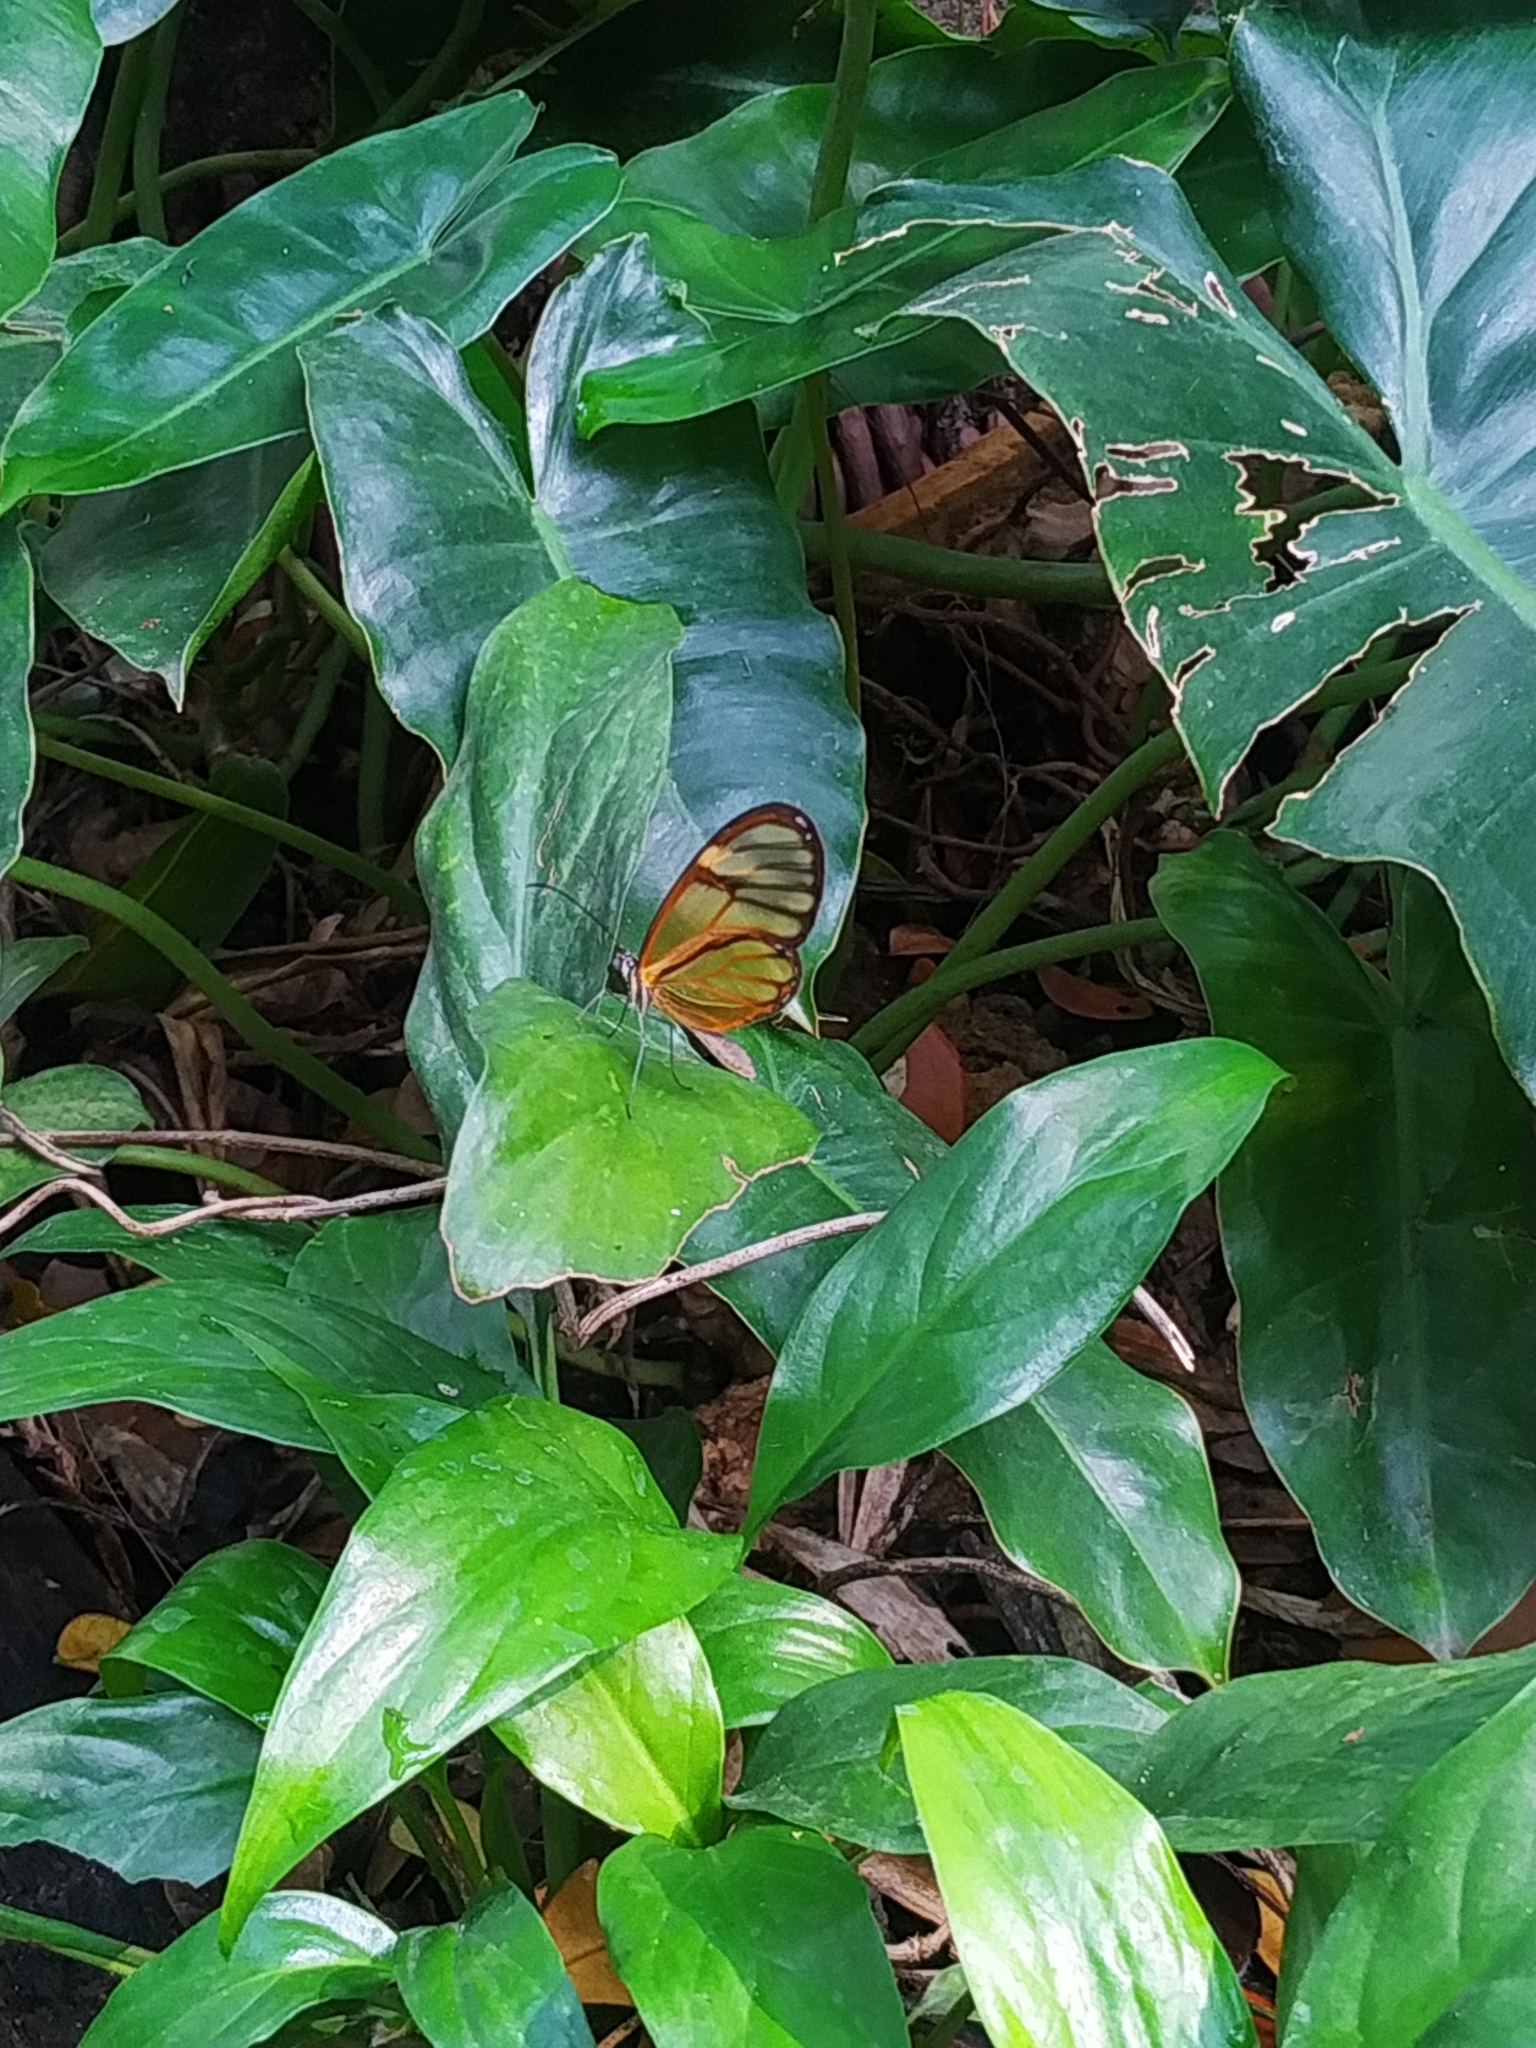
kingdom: Animalia
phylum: Arthropoda
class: Insecta
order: Lepidoptera
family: Nymphalidae
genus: Heterosais
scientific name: Heterosais giulia
